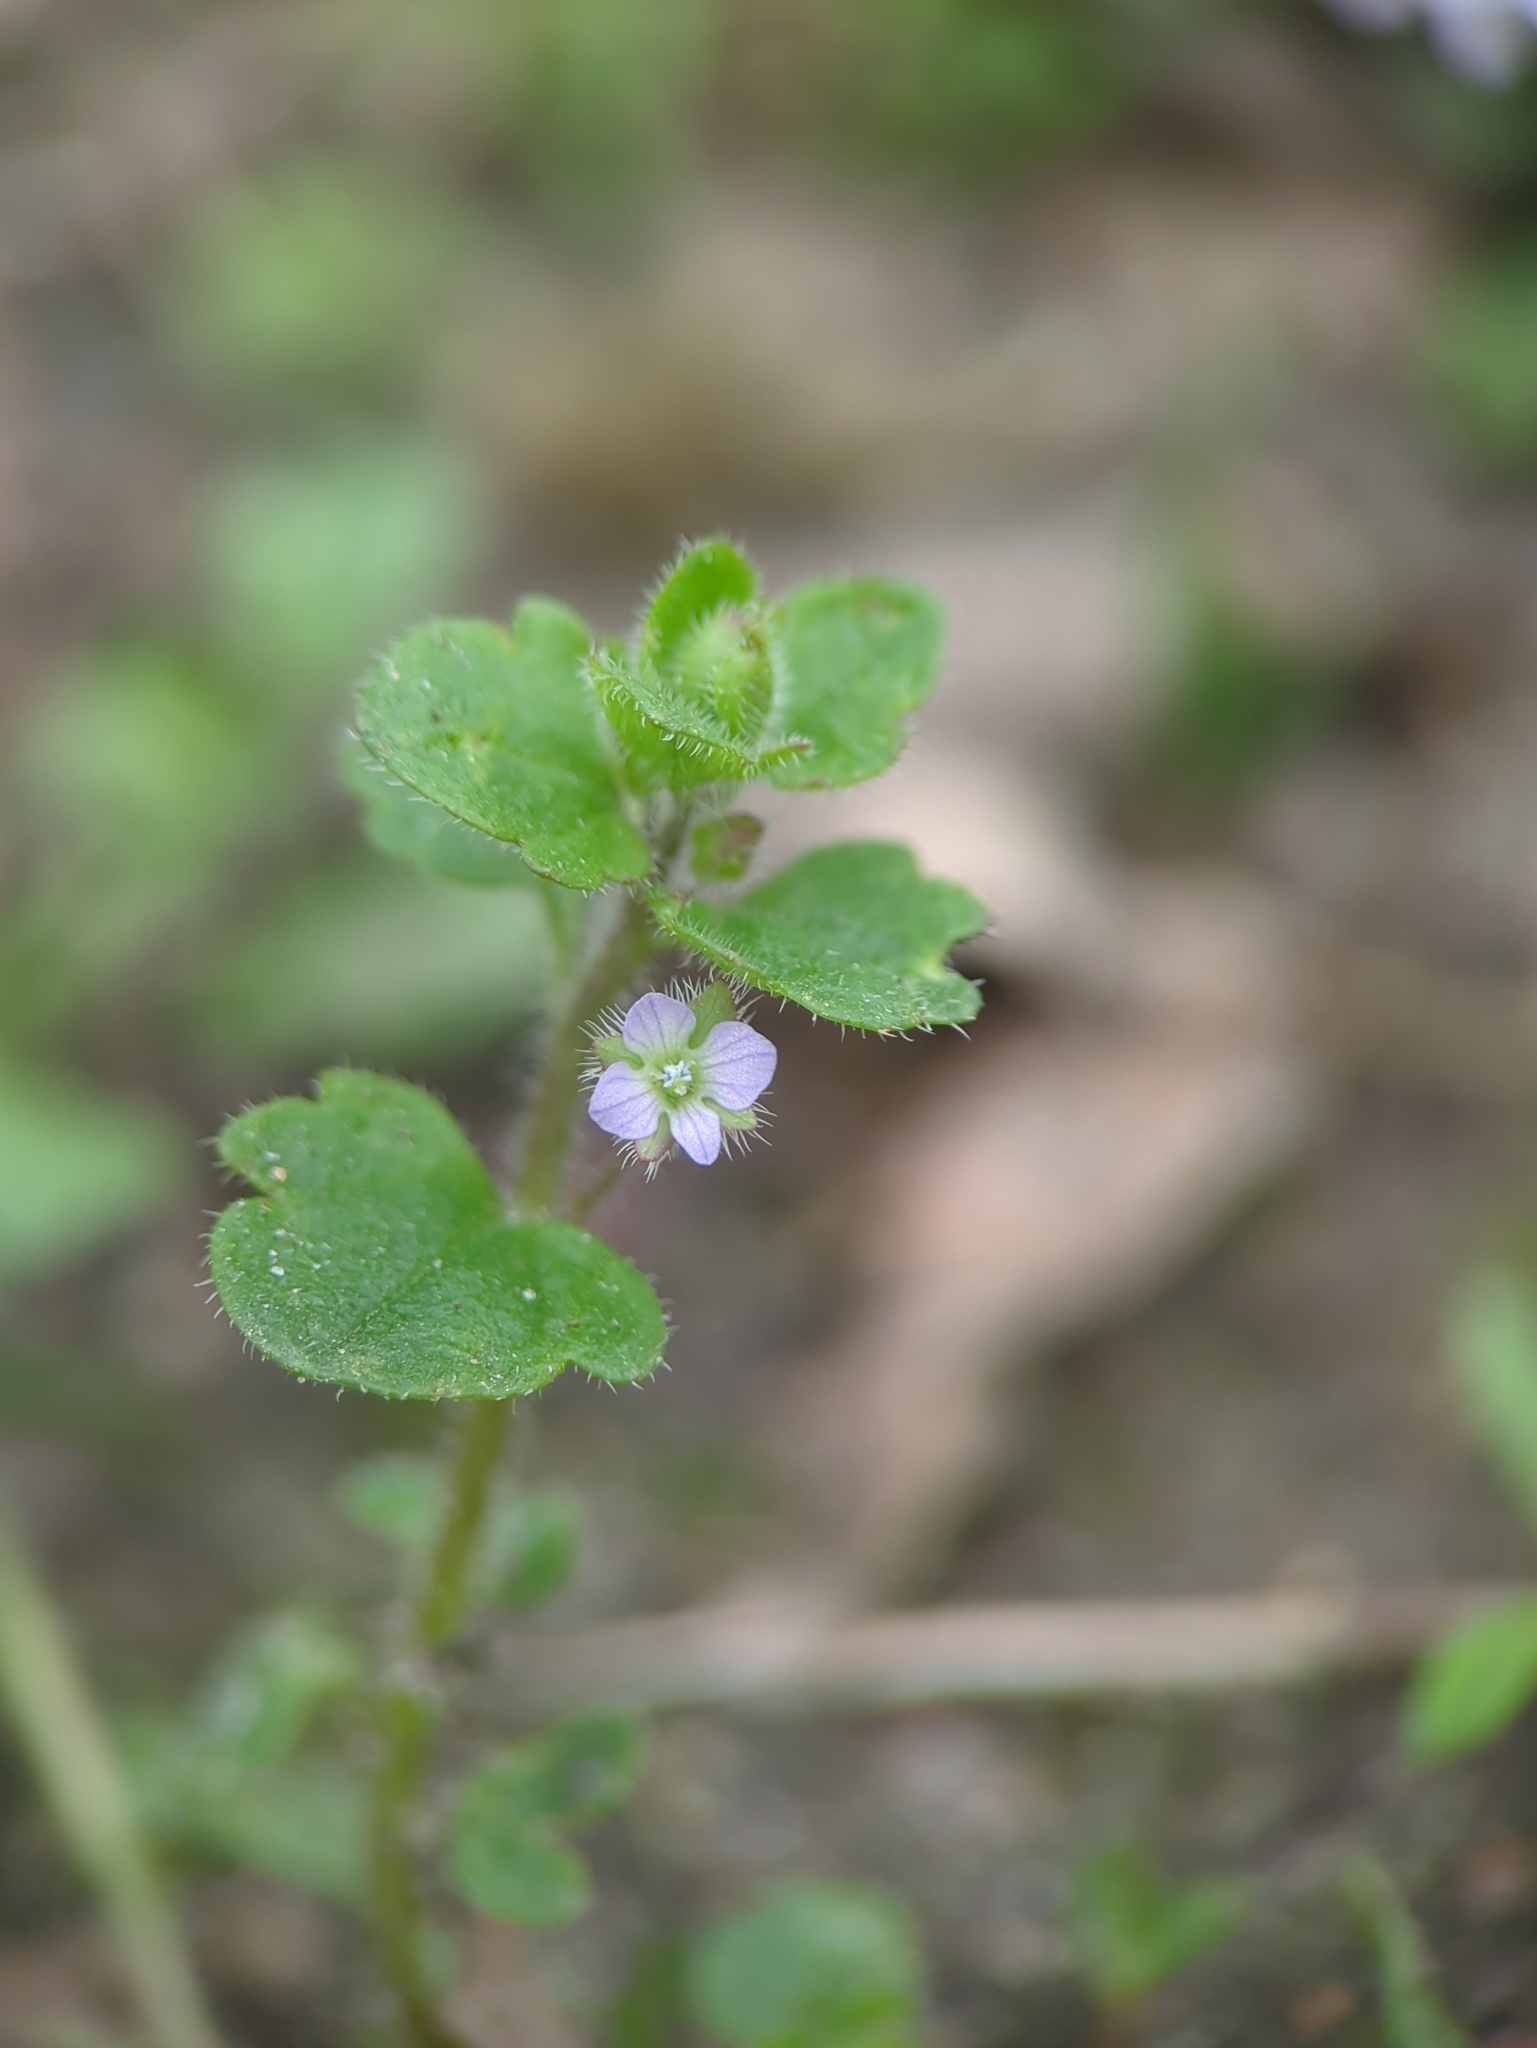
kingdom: Plantae
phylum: Tracheophyta
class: Magnoliopsida
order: Lamiales
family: Plantaginaceae
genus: Veronica
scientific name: Veronica sublobata
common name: False ivy-leaved speedwell
